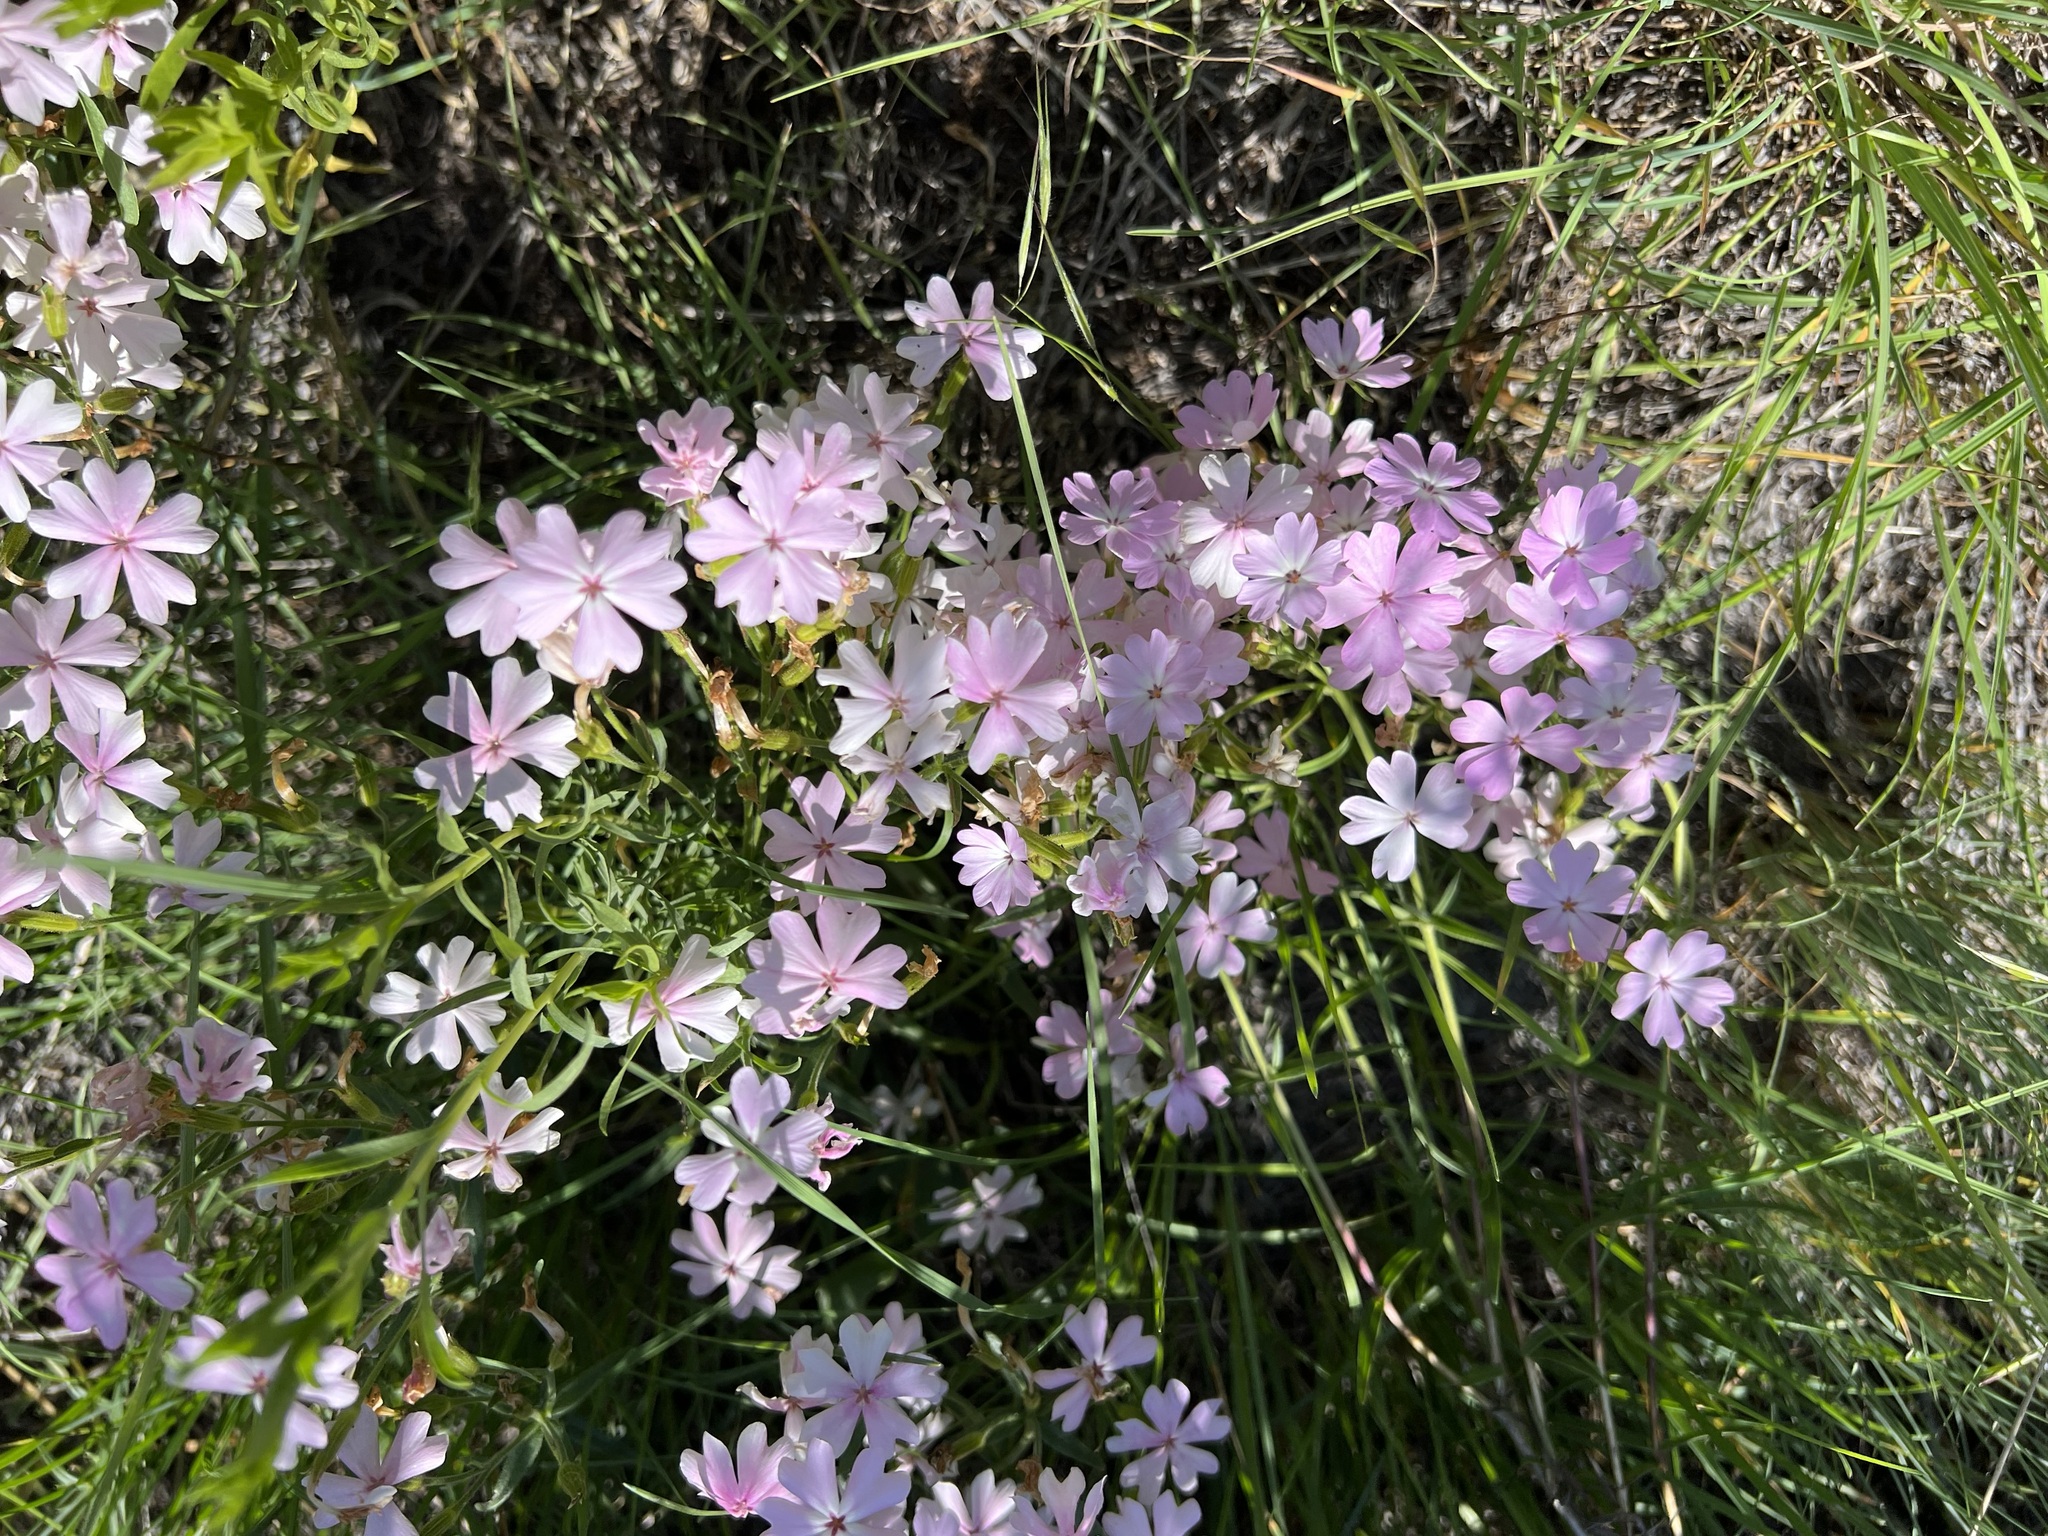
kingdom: Plantae
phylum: Tracheophyta
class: Magnoliopsida
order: Ericales
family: Polemoniaceae
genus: Phlox
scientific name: Phlox speciosa
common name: Bush phlox
